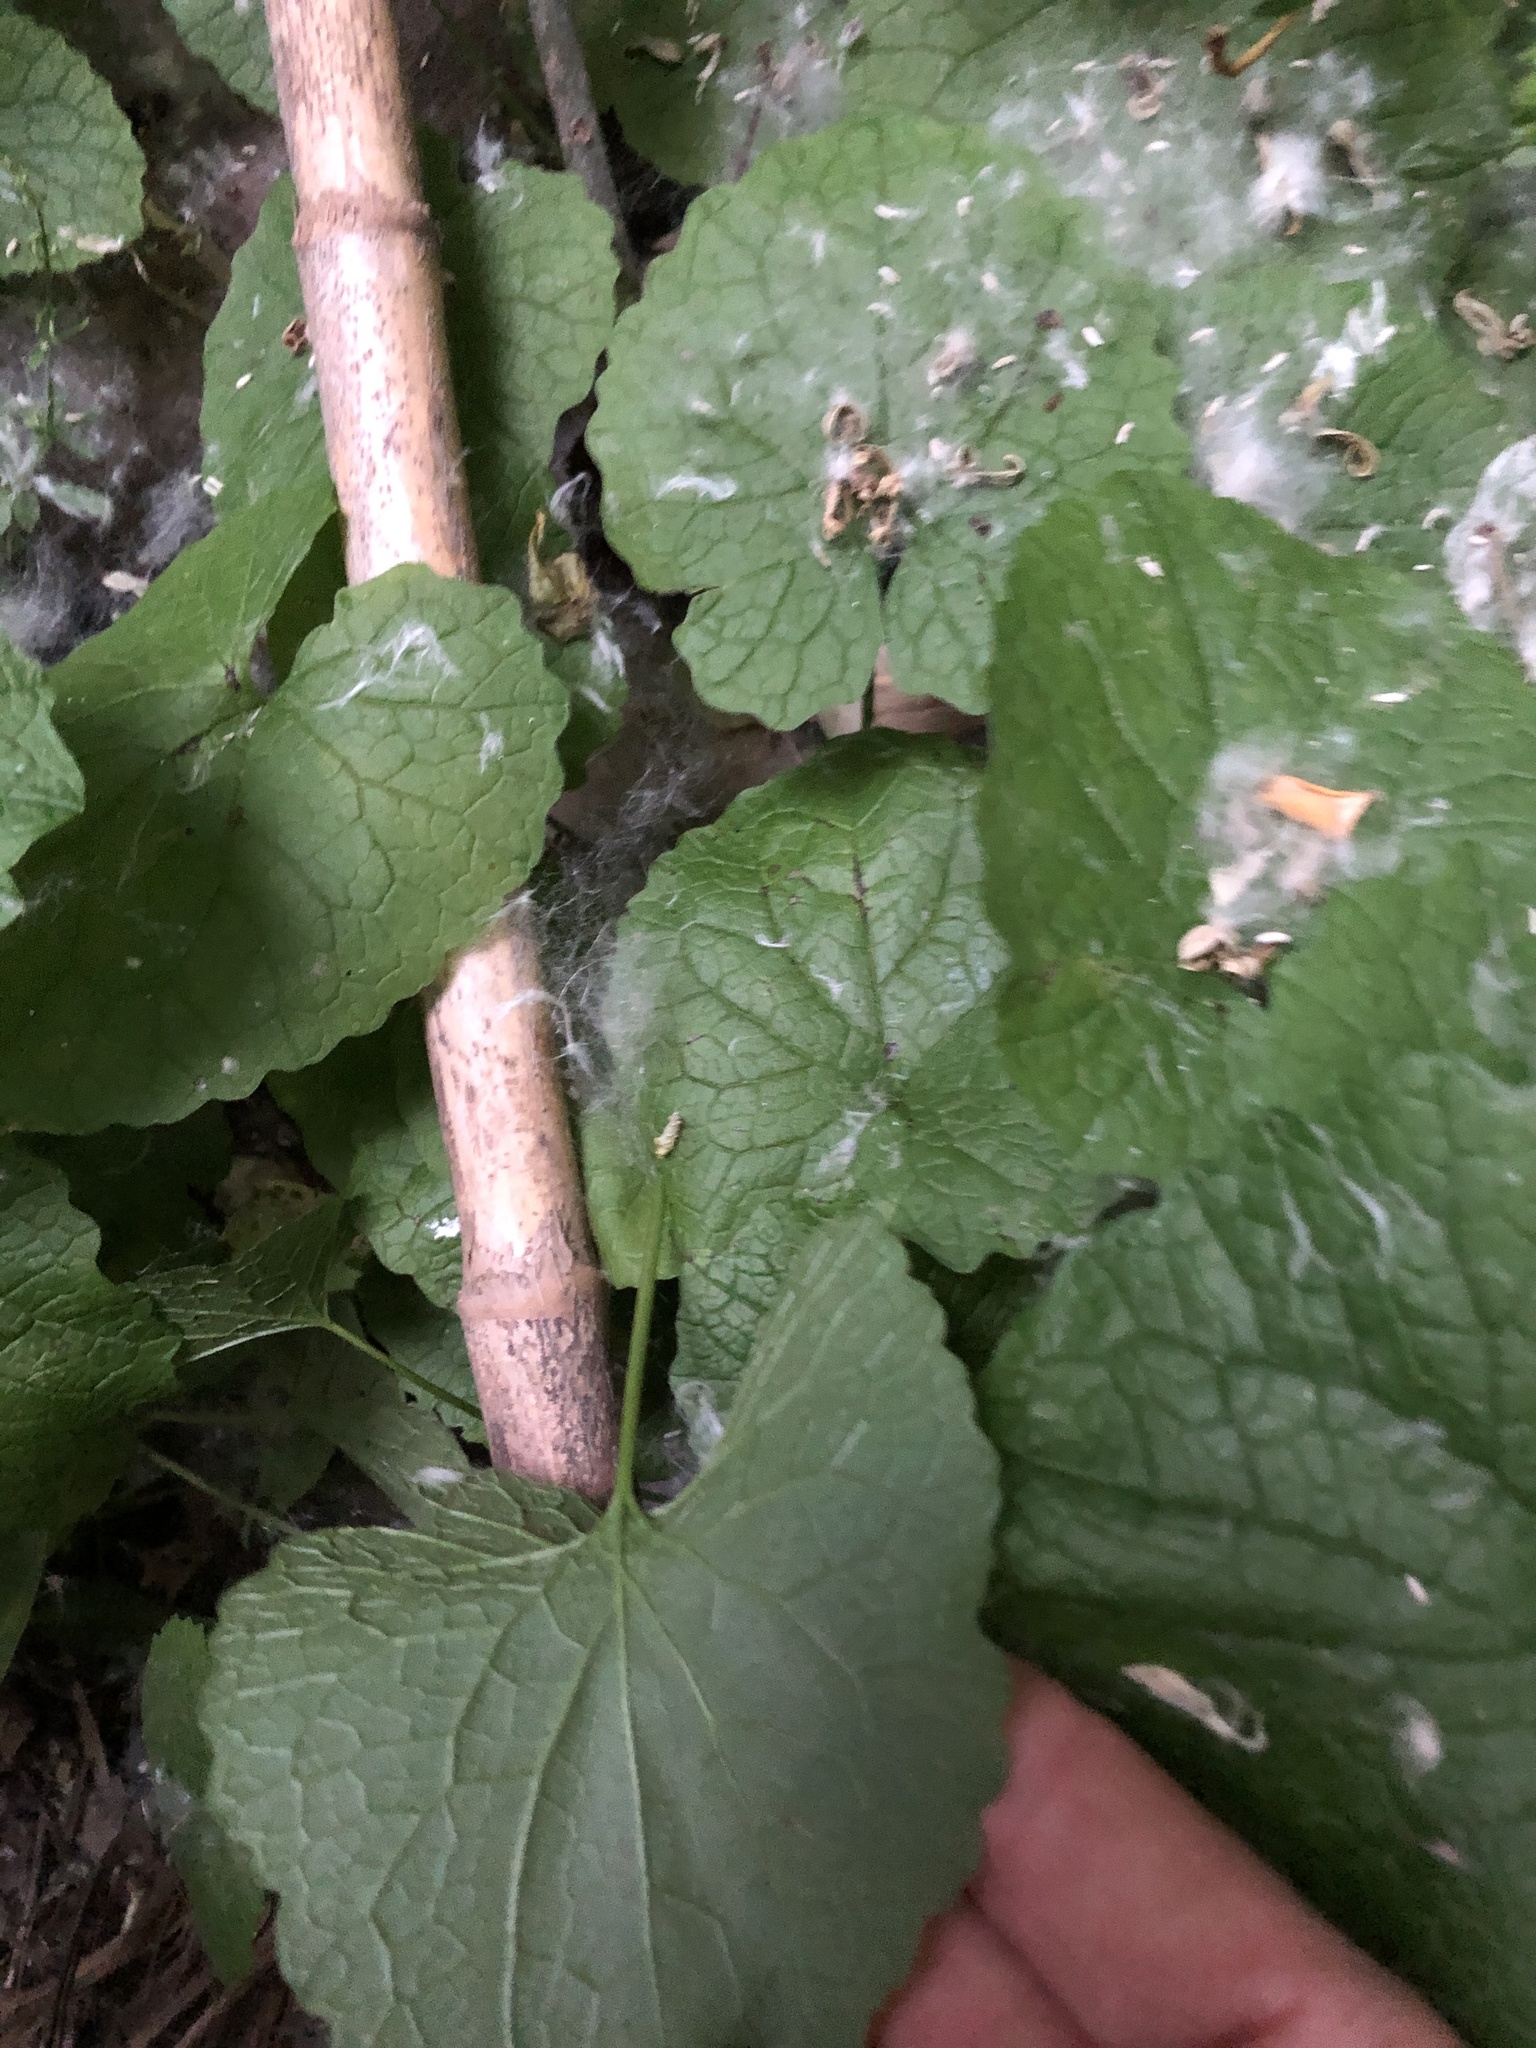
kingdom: Plantae
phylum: Tracheophyta
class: Magnoliopsida
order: Brassicales
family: Brassicaceae
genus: Alliaria
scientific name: Alliaria petiolata
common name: Garlic mustard
